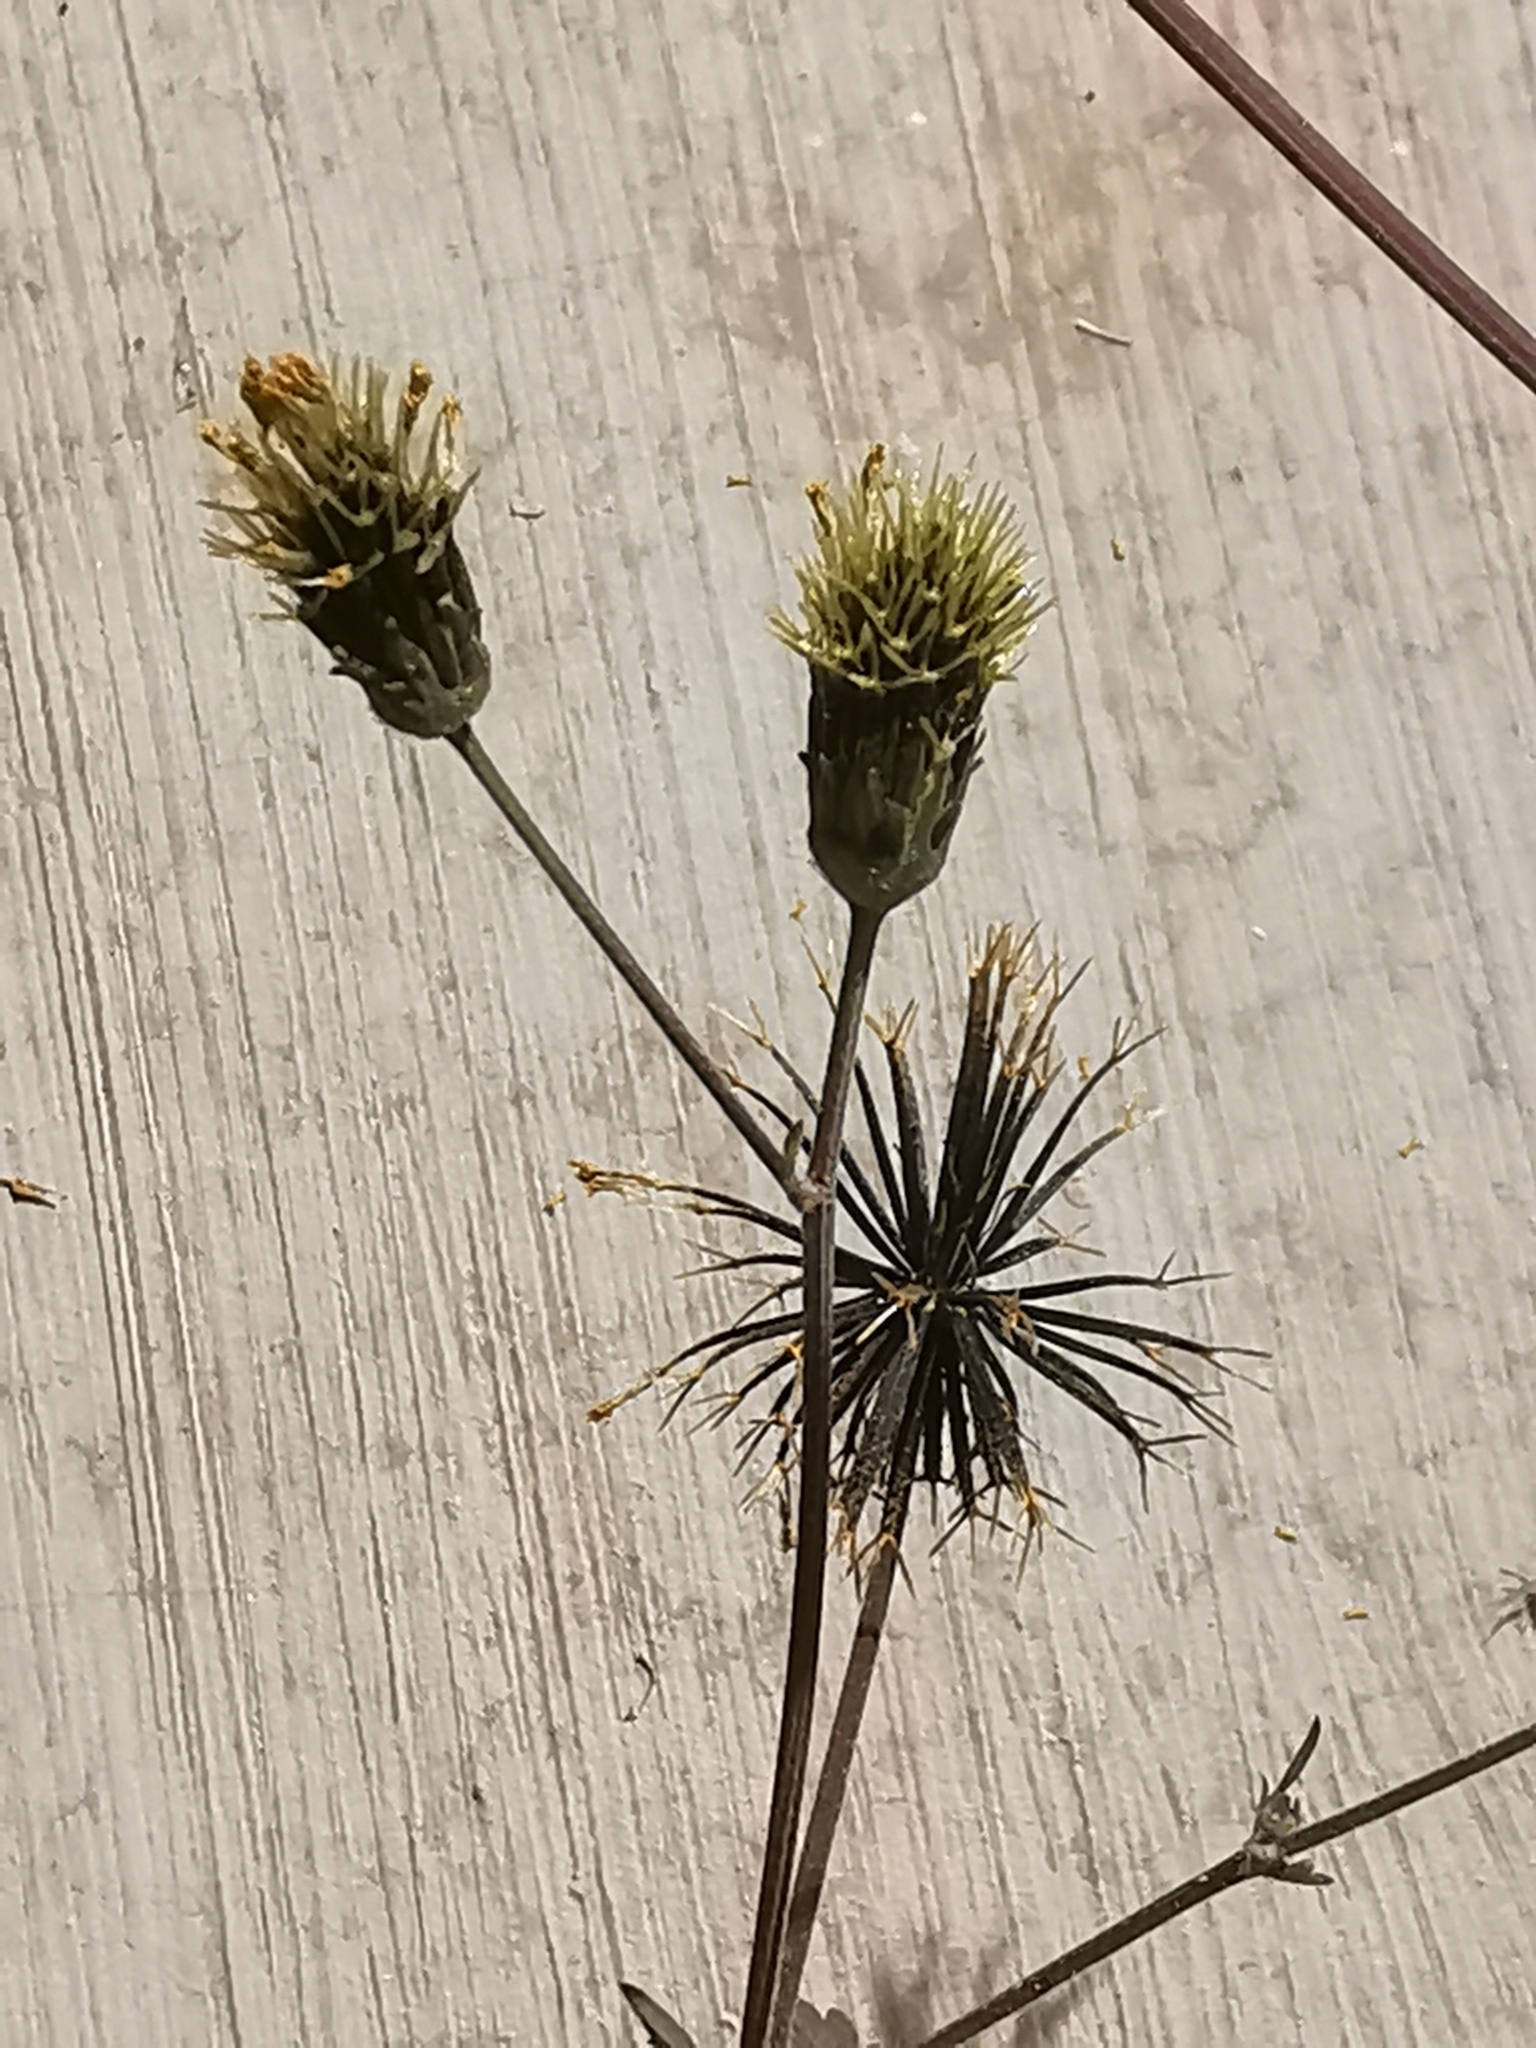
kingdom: Plantae
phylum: Tracheophyta
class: Magnoliopsida
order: Asterales
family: Asteraceae
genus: Bidens
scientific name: Bidens pilosa
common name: Black-jack
